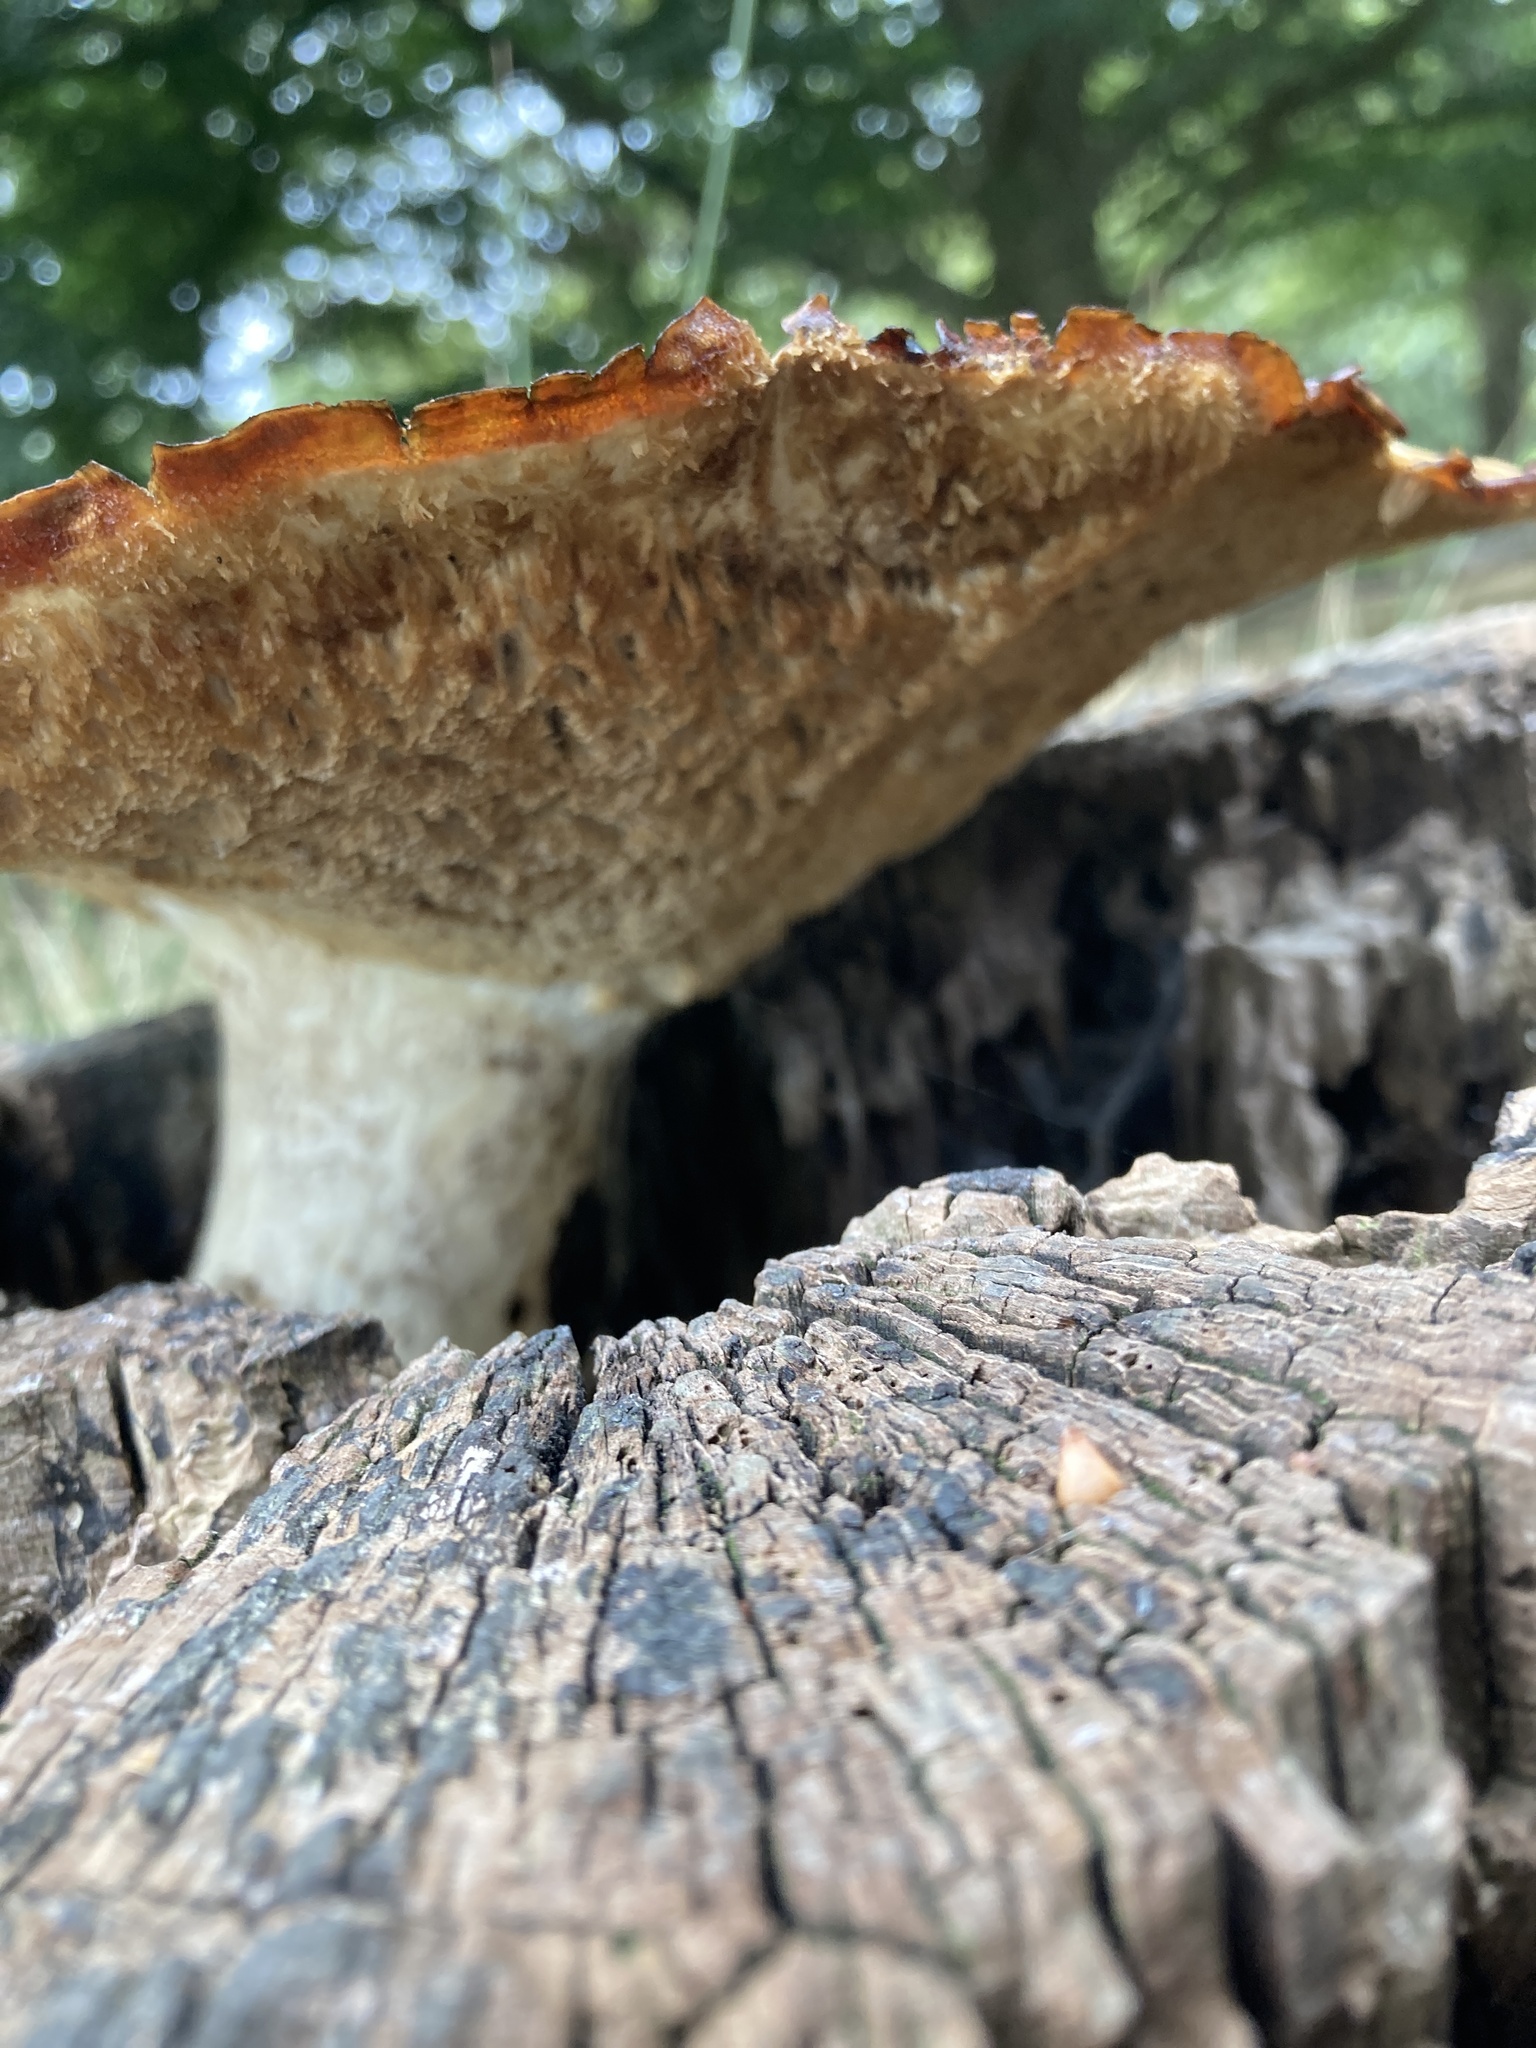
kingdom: Fungi
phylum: Basidiomycota
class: Agaricomycetes
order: Polyporales
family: Polyporaceae
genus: Cerioporus
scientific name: Cerioporus squamosus
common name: Dryad's saddle
